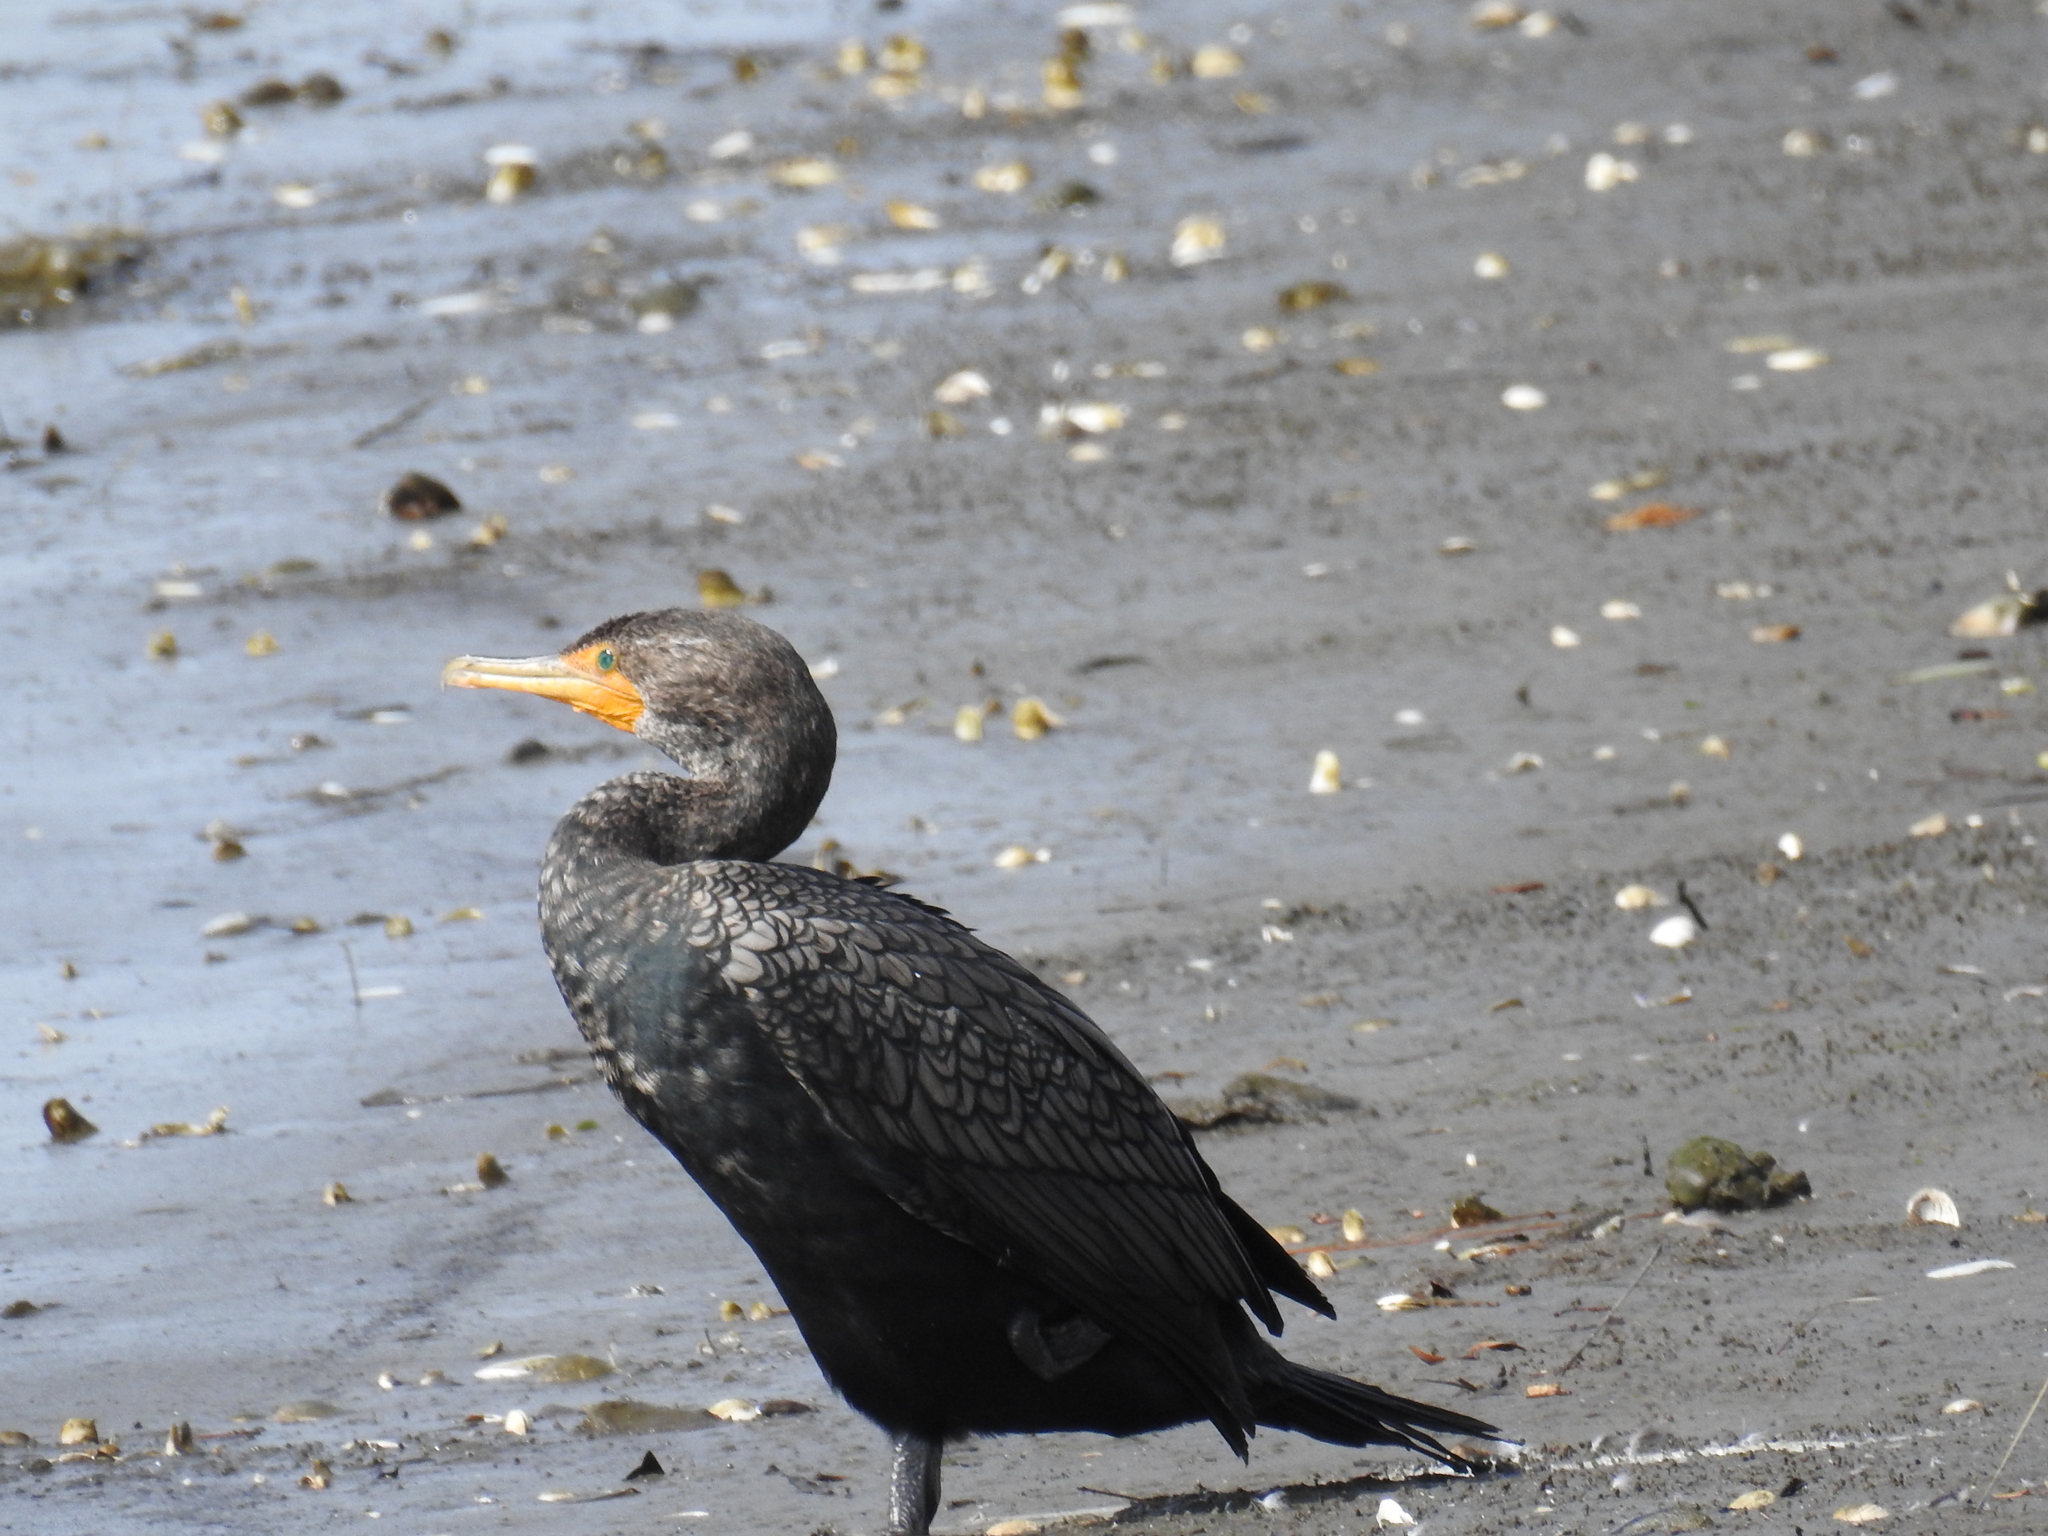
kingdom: Animalia
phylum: Chordata
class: Aves
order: Suliformes
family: Phalacrocoracidae
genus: Phalacrocorax
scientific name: Phalacrocorax auritus
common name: Double-crested cormorant
